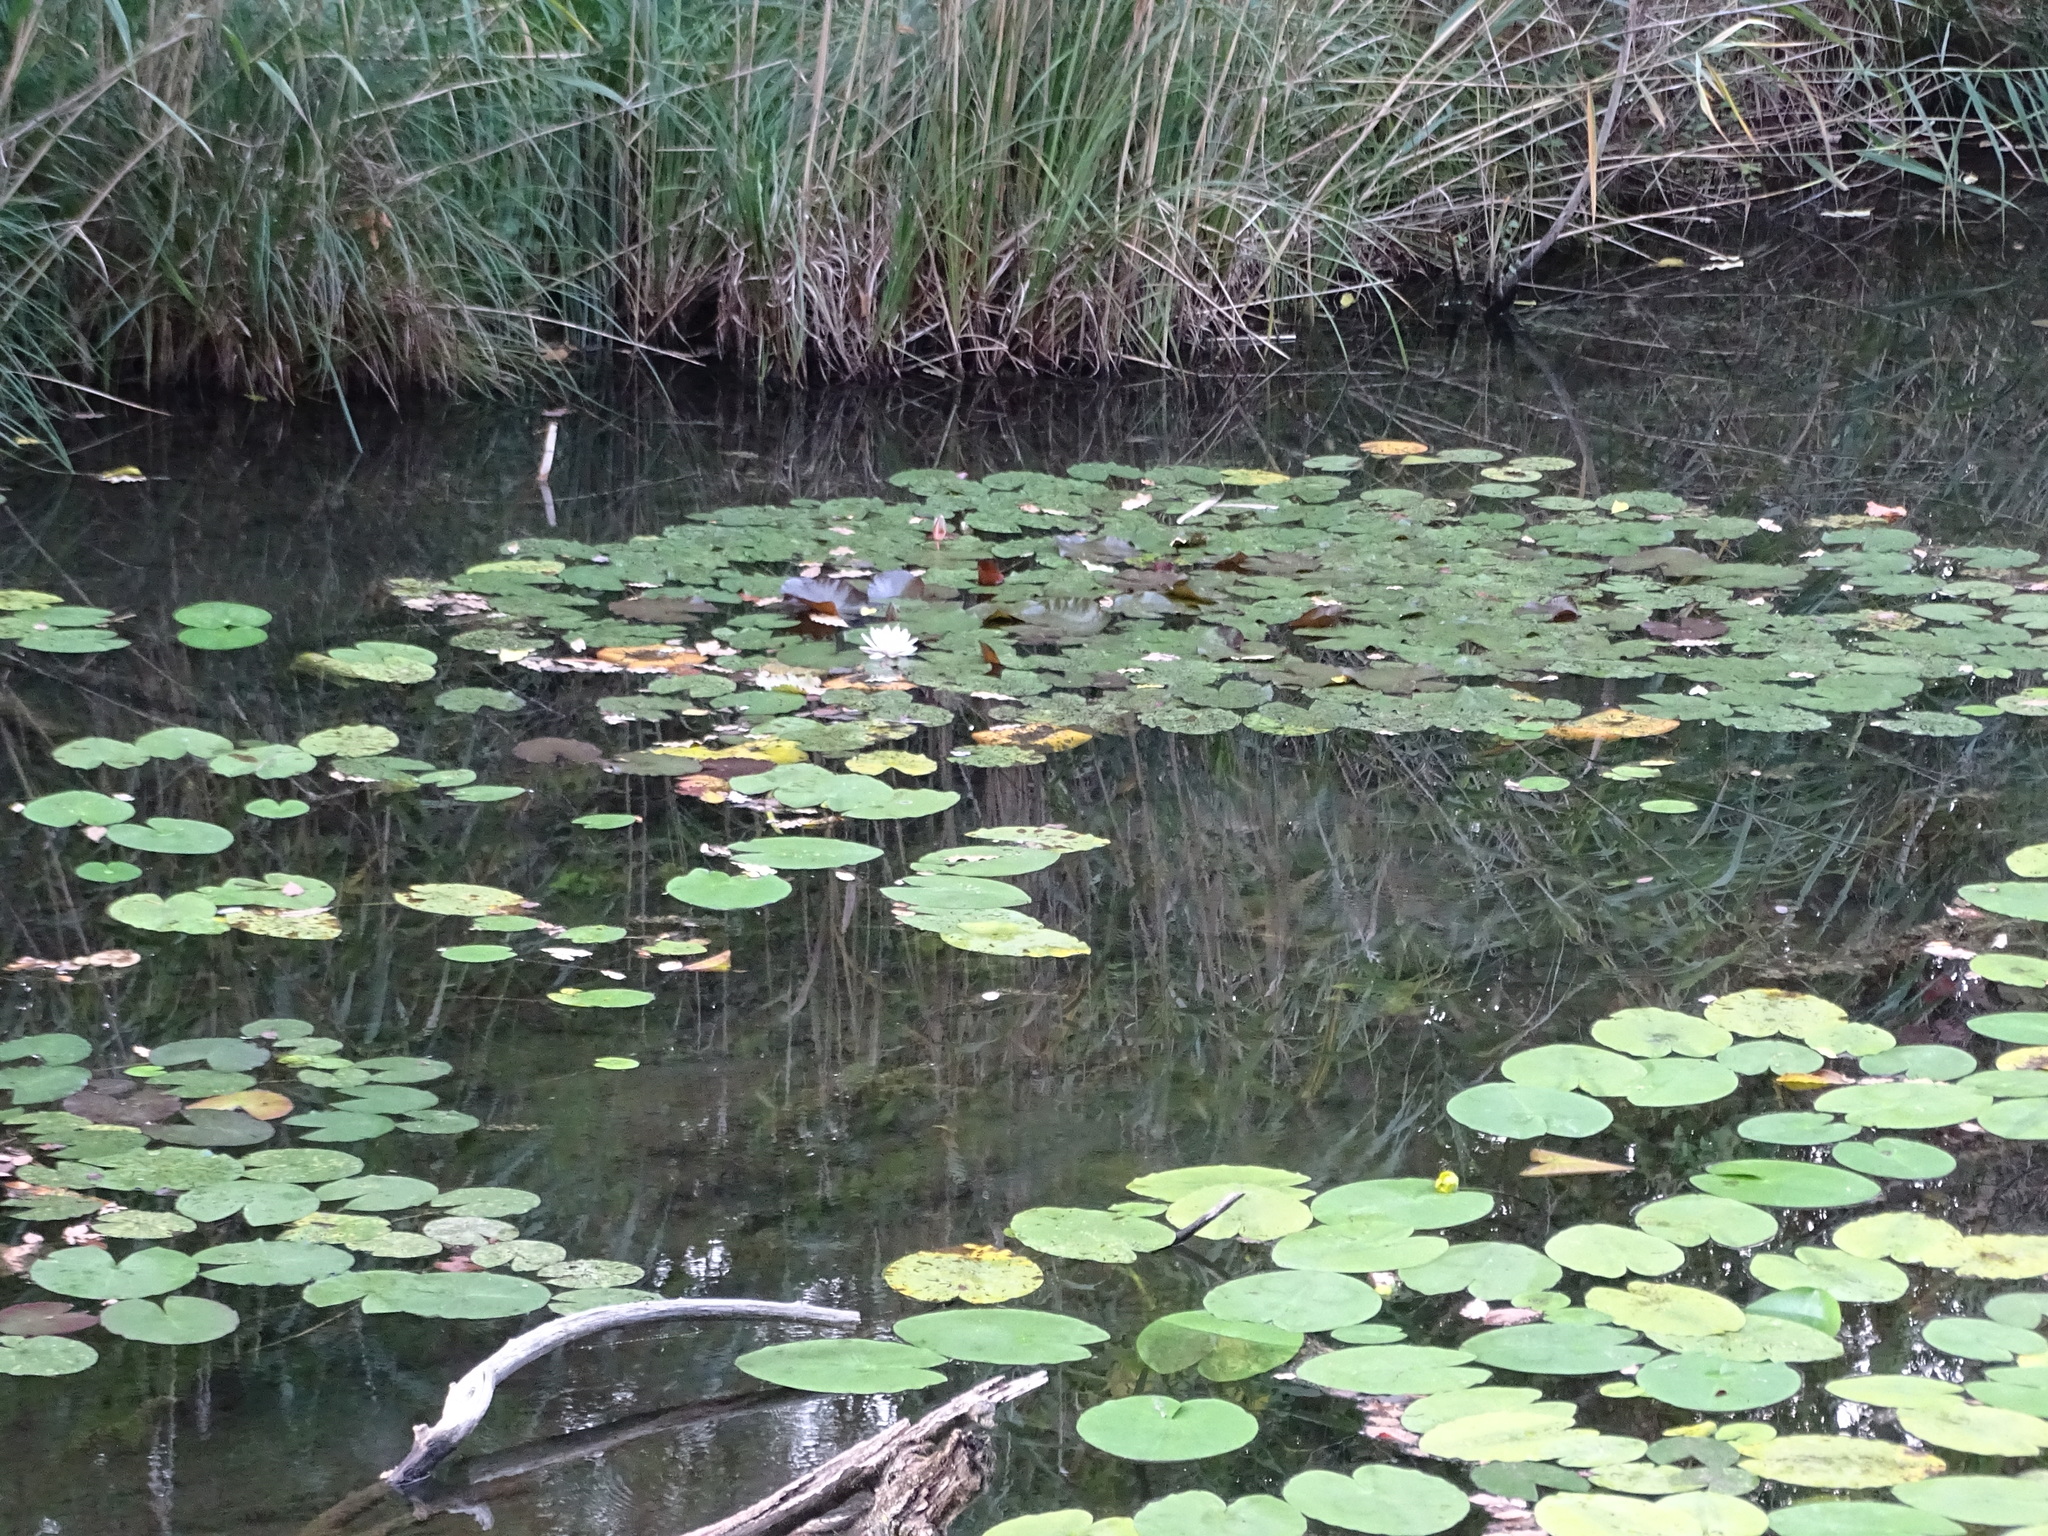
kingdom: Plantae
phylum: Tracheophyta
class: Magnoliopsida
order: Nymphaeales
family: Nymphaeaceae
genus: Nymphaea
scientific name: Nymphaea alba
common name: White water-lily
